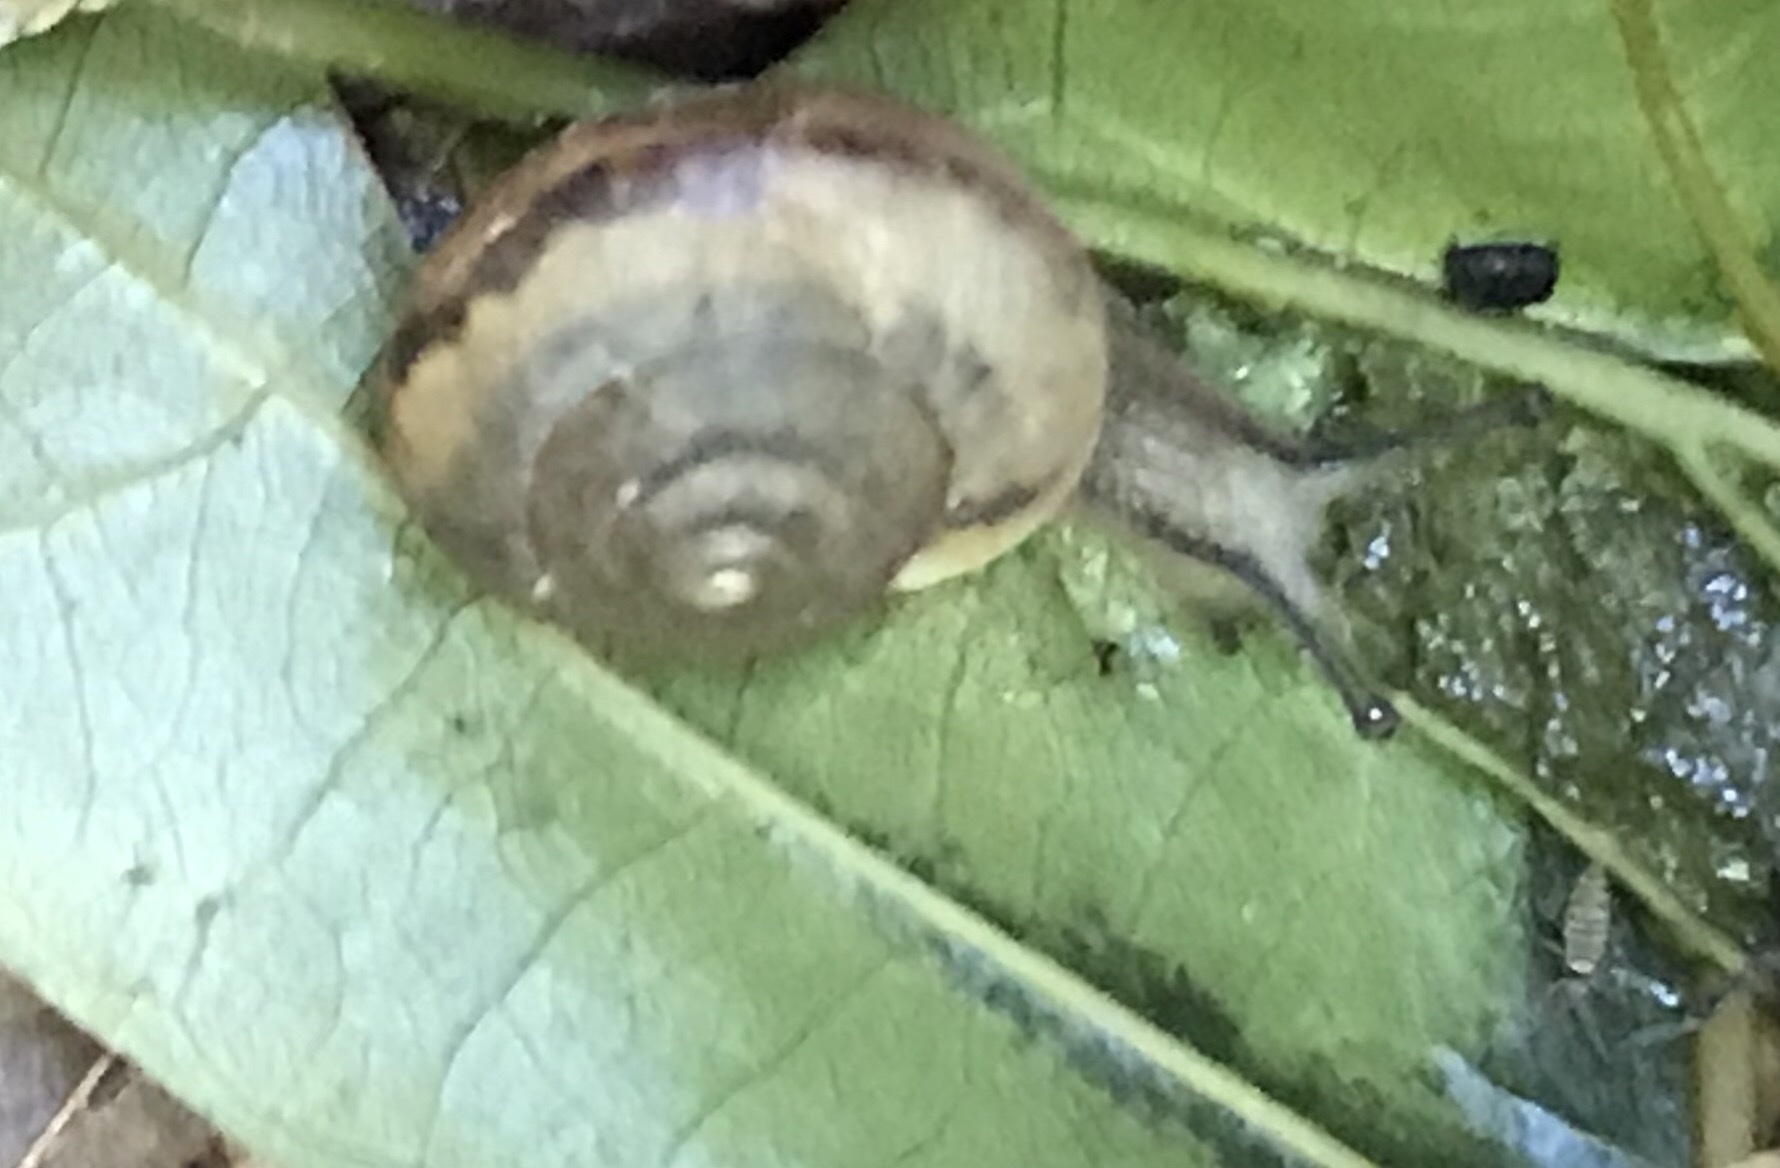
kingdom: Animalia
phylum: Mollusca
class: Gastropoda
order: Stylommatophora
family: Camaenidae
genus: Bradybaena
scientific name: Bradybaena similaris
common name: Asian trampsnail
